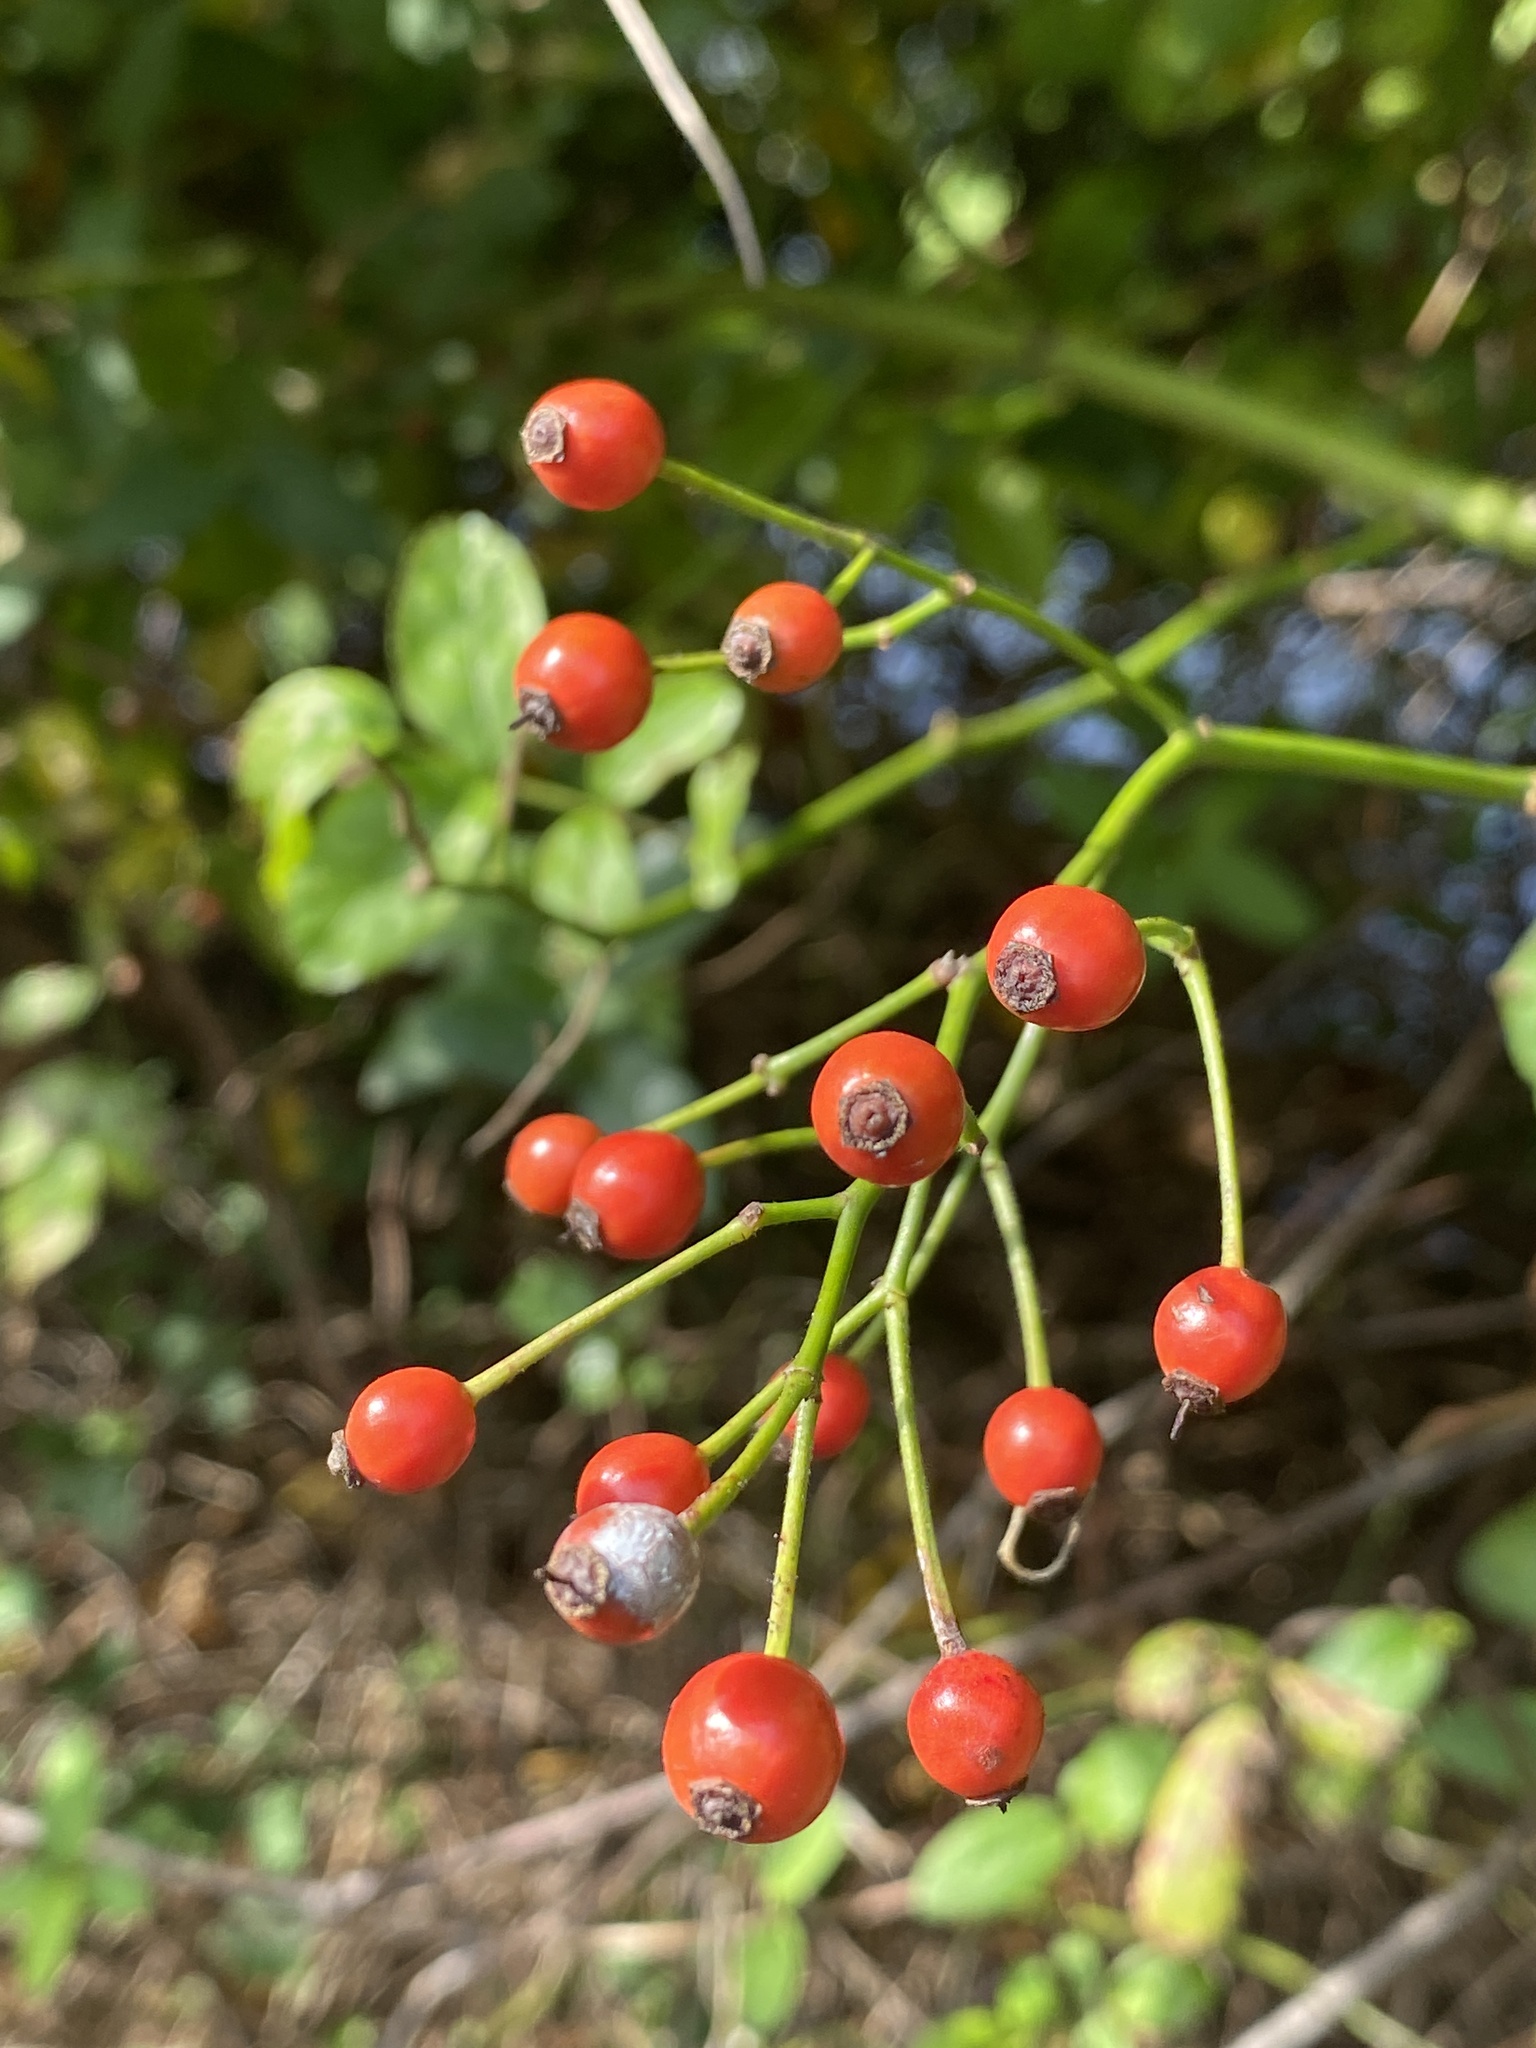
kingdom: Plantae
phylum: Tracheophyta
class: Magnoliopsida
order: Rosales
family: Rosaceae
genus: Rosa
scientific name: Rosa multiflora
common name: Multiflora rose
